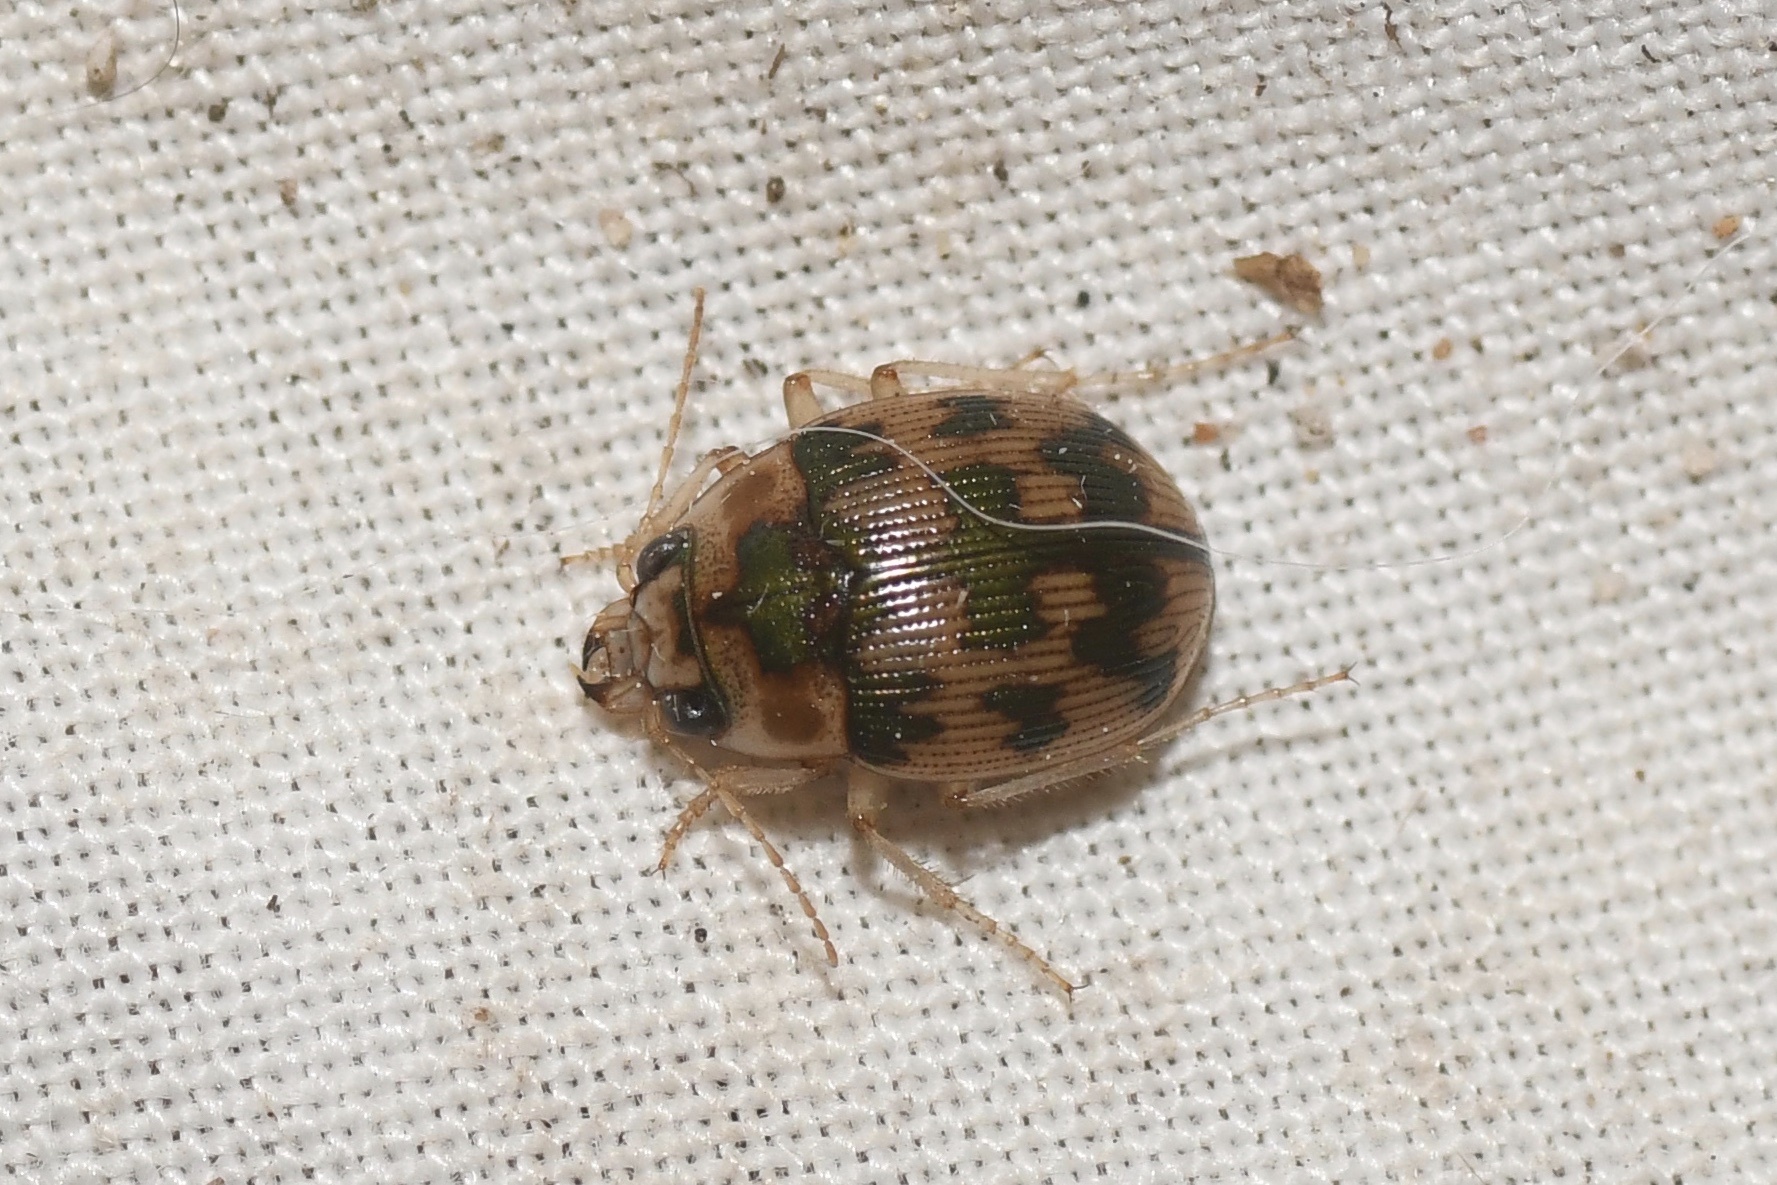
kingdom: Animalia
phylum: Arthropoda
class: Insecta
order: Coleoptera
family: Carabidae
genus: Omophron
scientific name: Omophron tessellatum
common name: Mosaic round sand beetle
